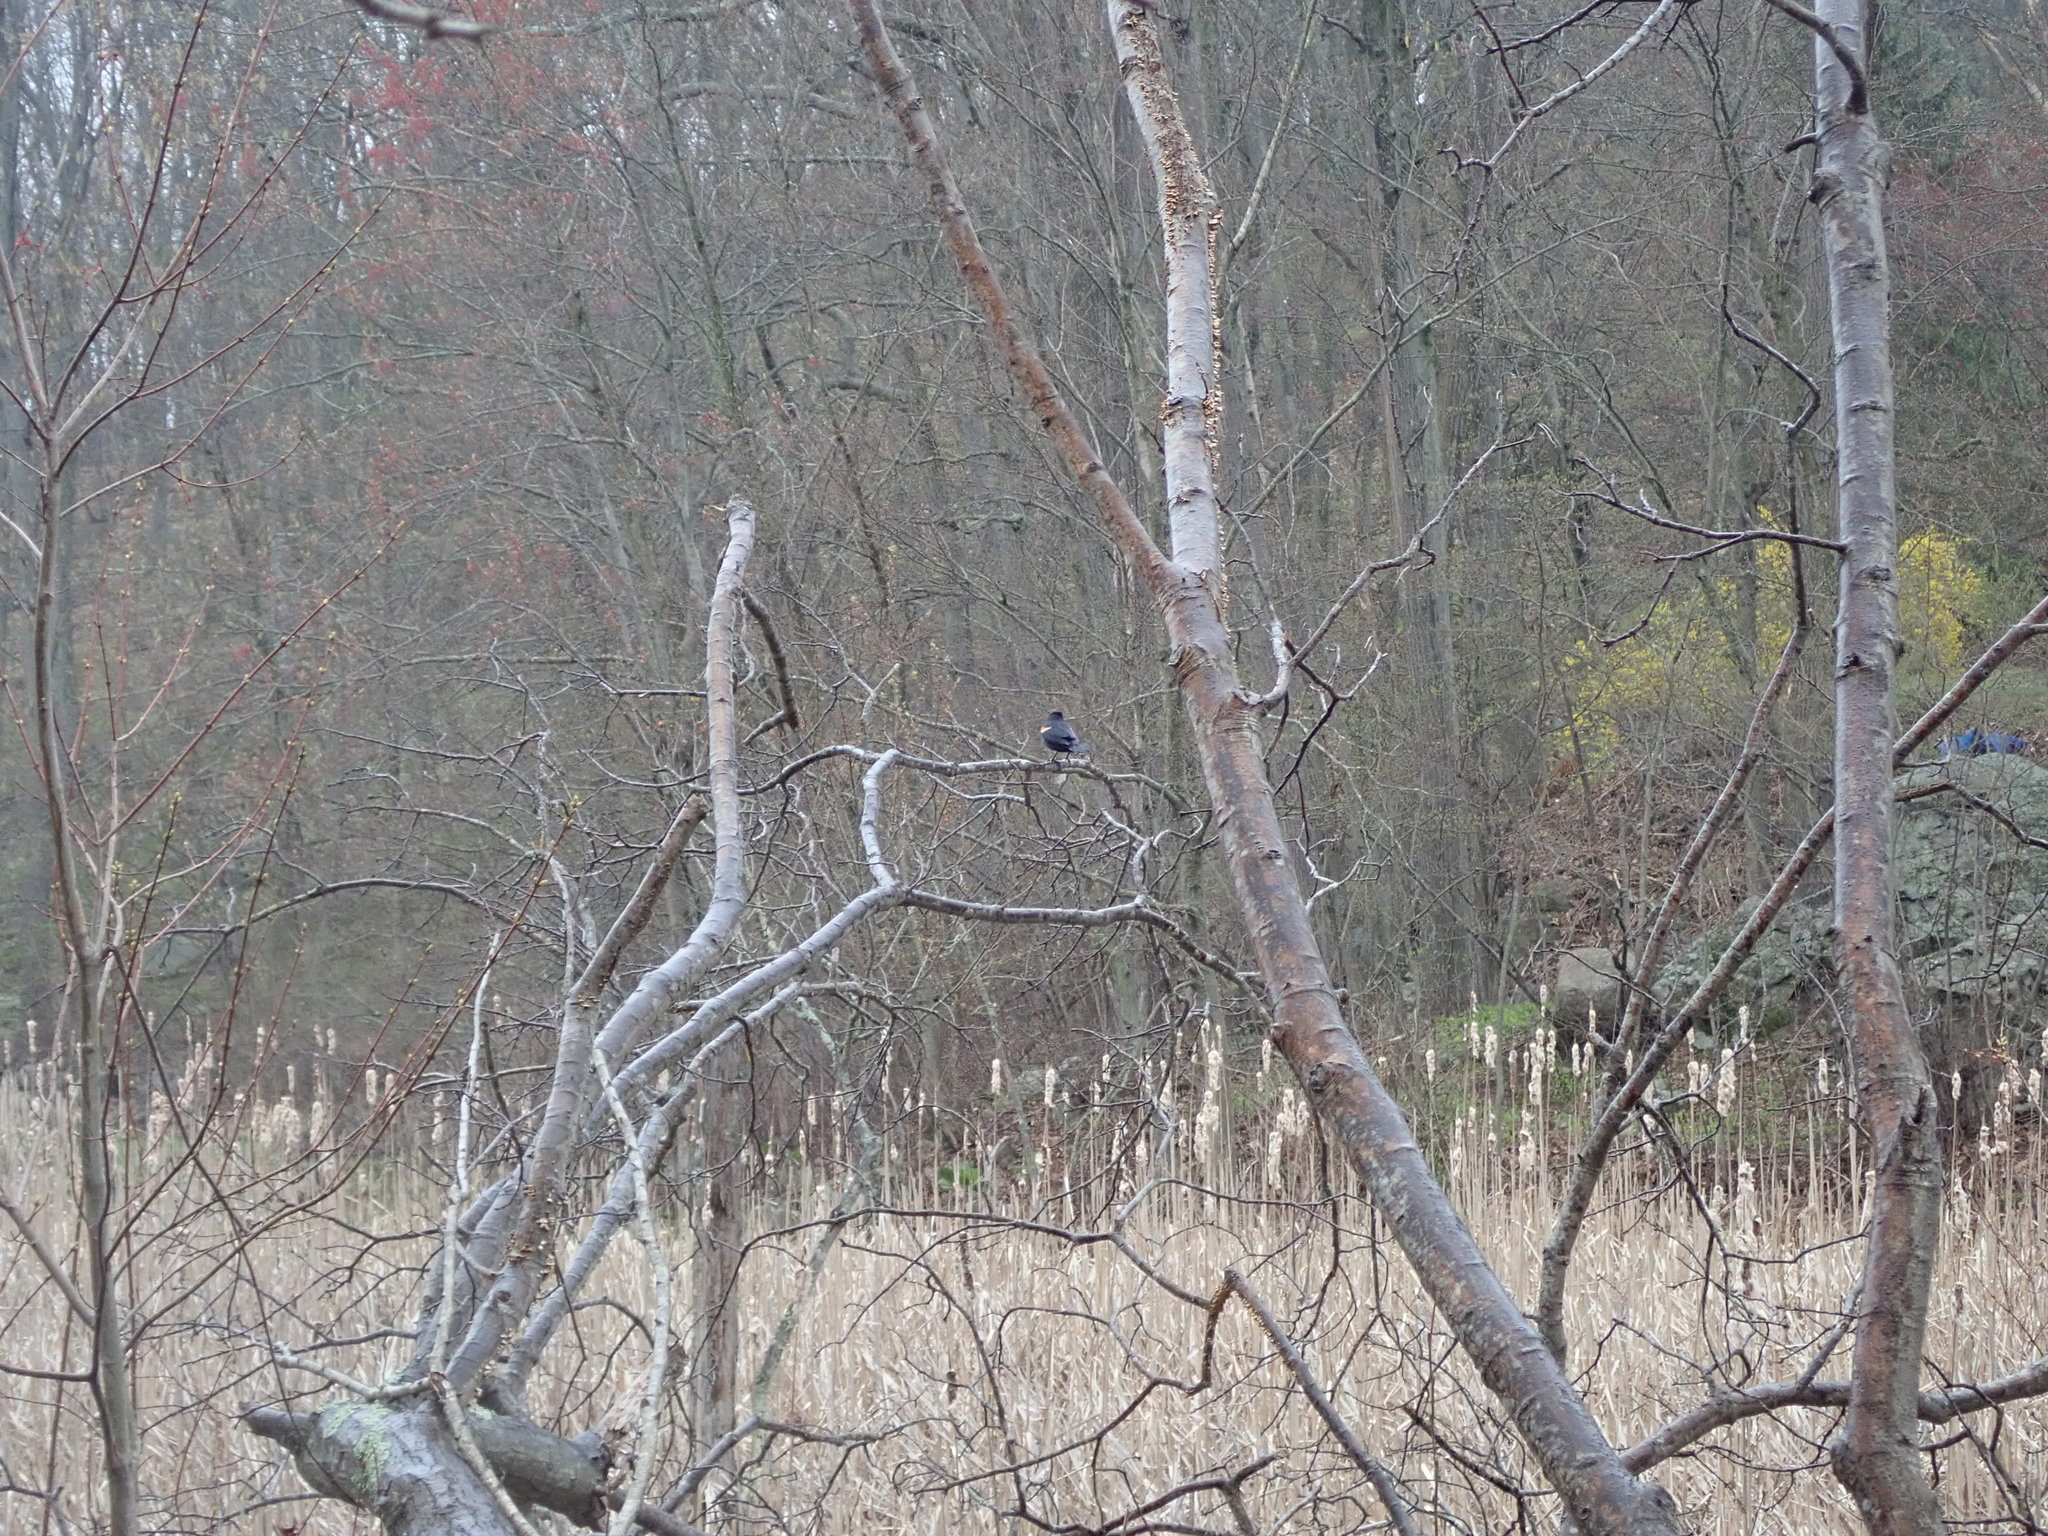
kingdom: Animalia
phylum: Chordata
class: Aves
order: Passeriformes
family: Icteridae
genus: Agelaius
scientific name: Agelaius phoeniceus
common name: Red-winged blackbird
